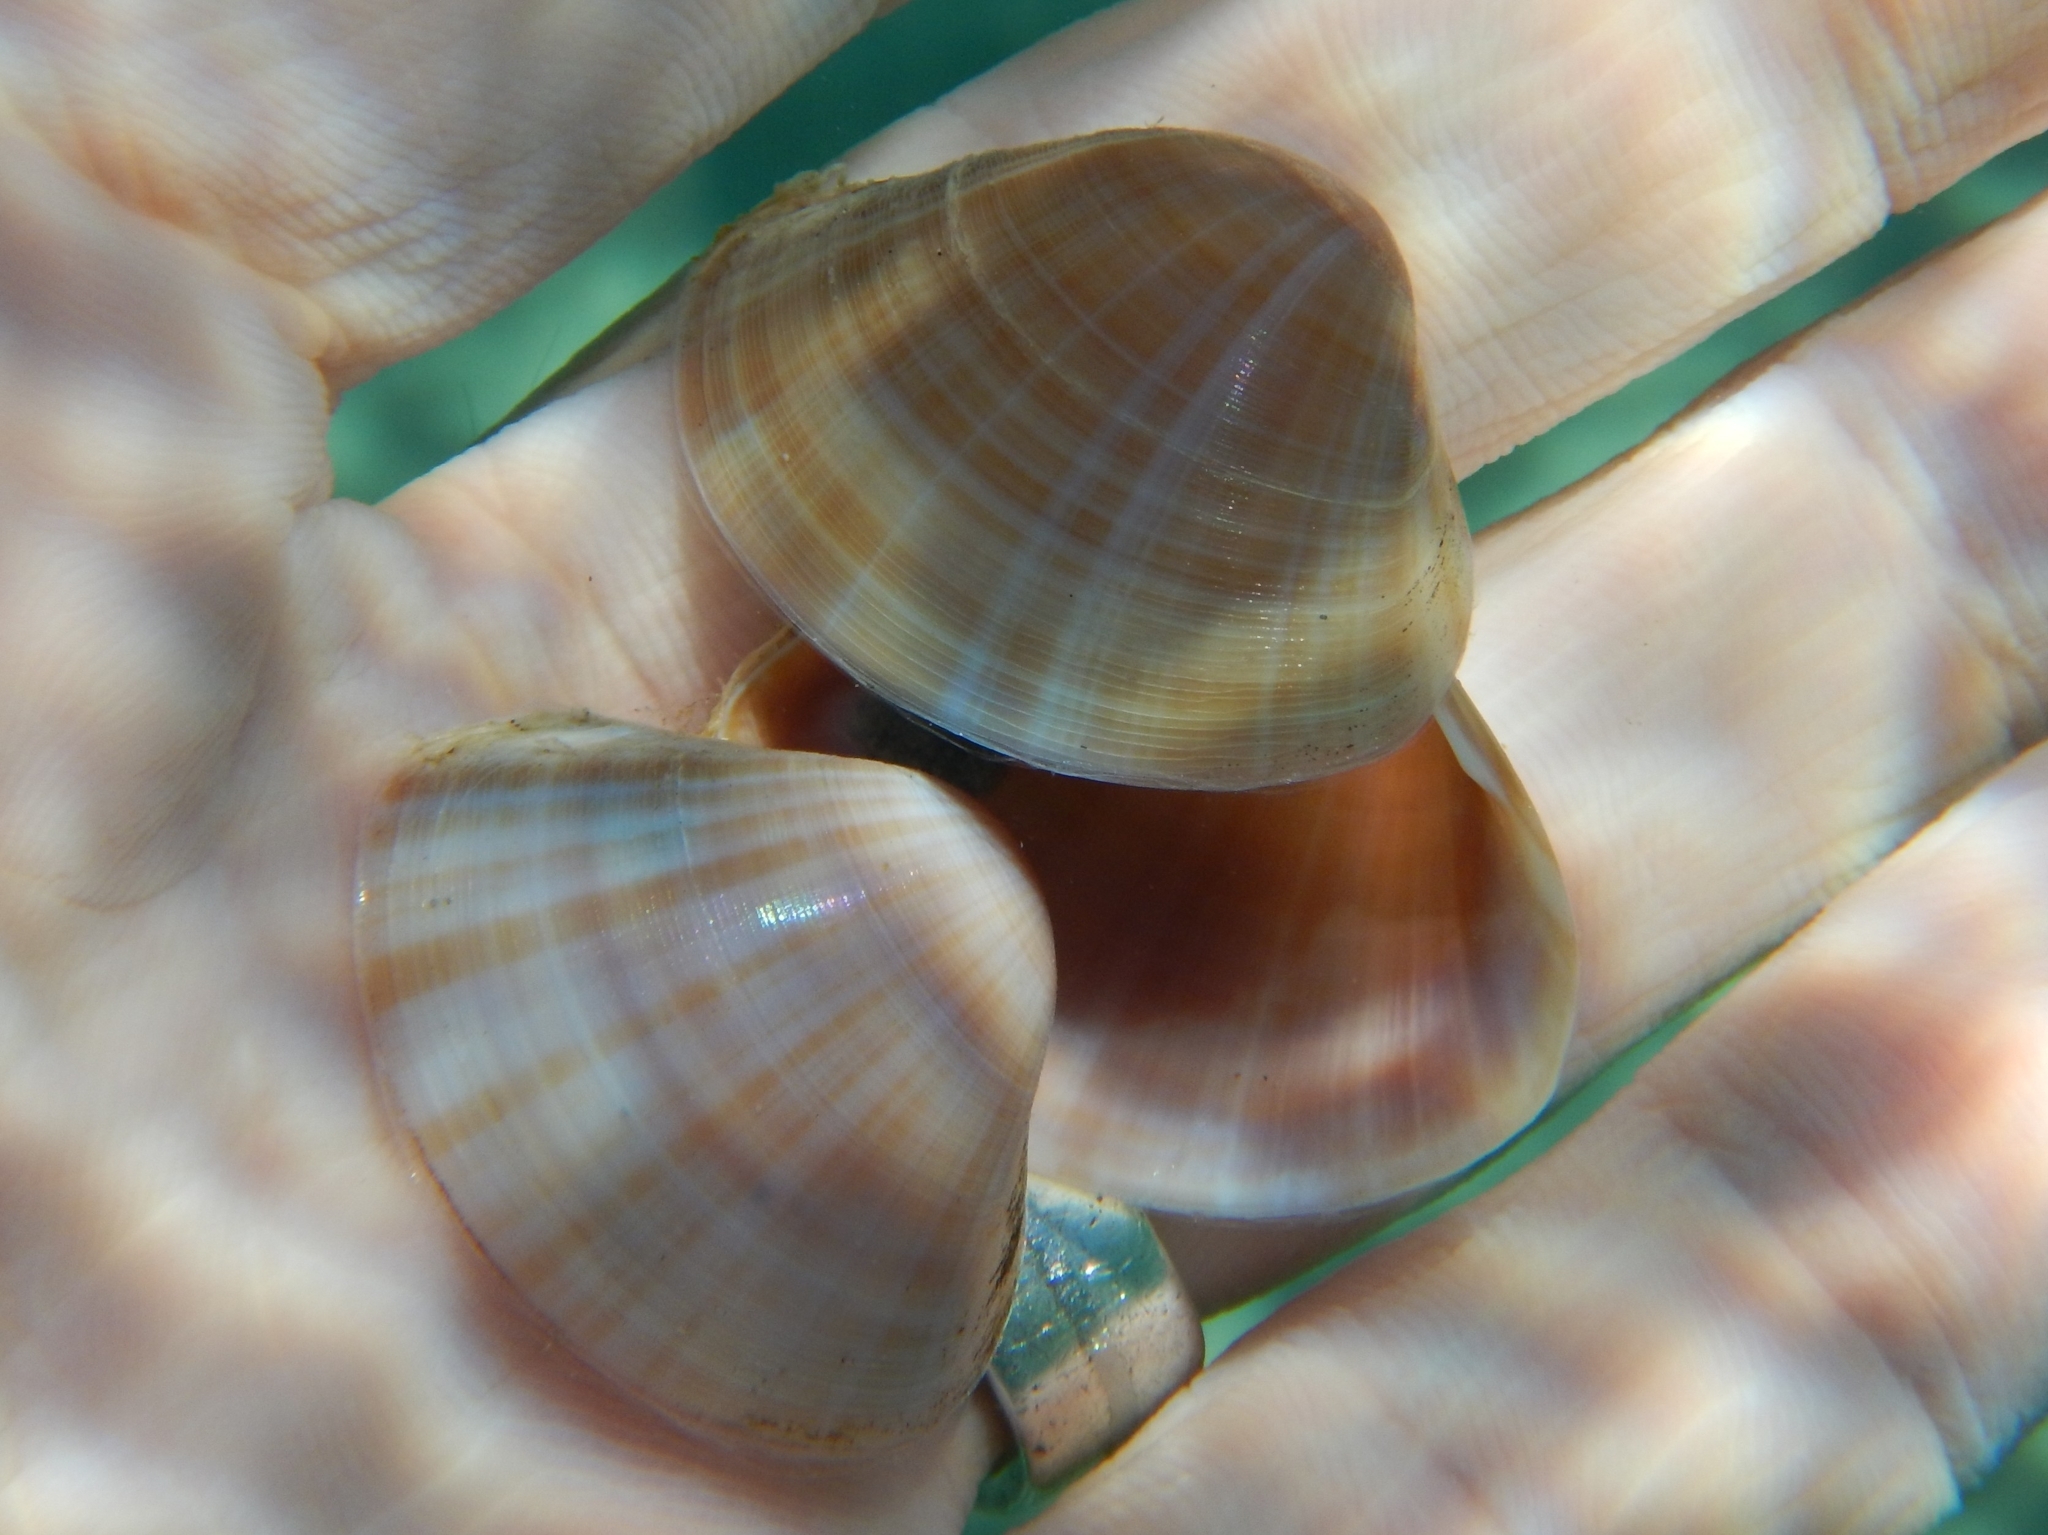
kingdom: Animalia
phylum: Mollusca
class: Bivalvia
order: Venerida
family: Mactridae
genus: Mactra
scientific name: Mactra stultorum
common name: Rayed trough shell
